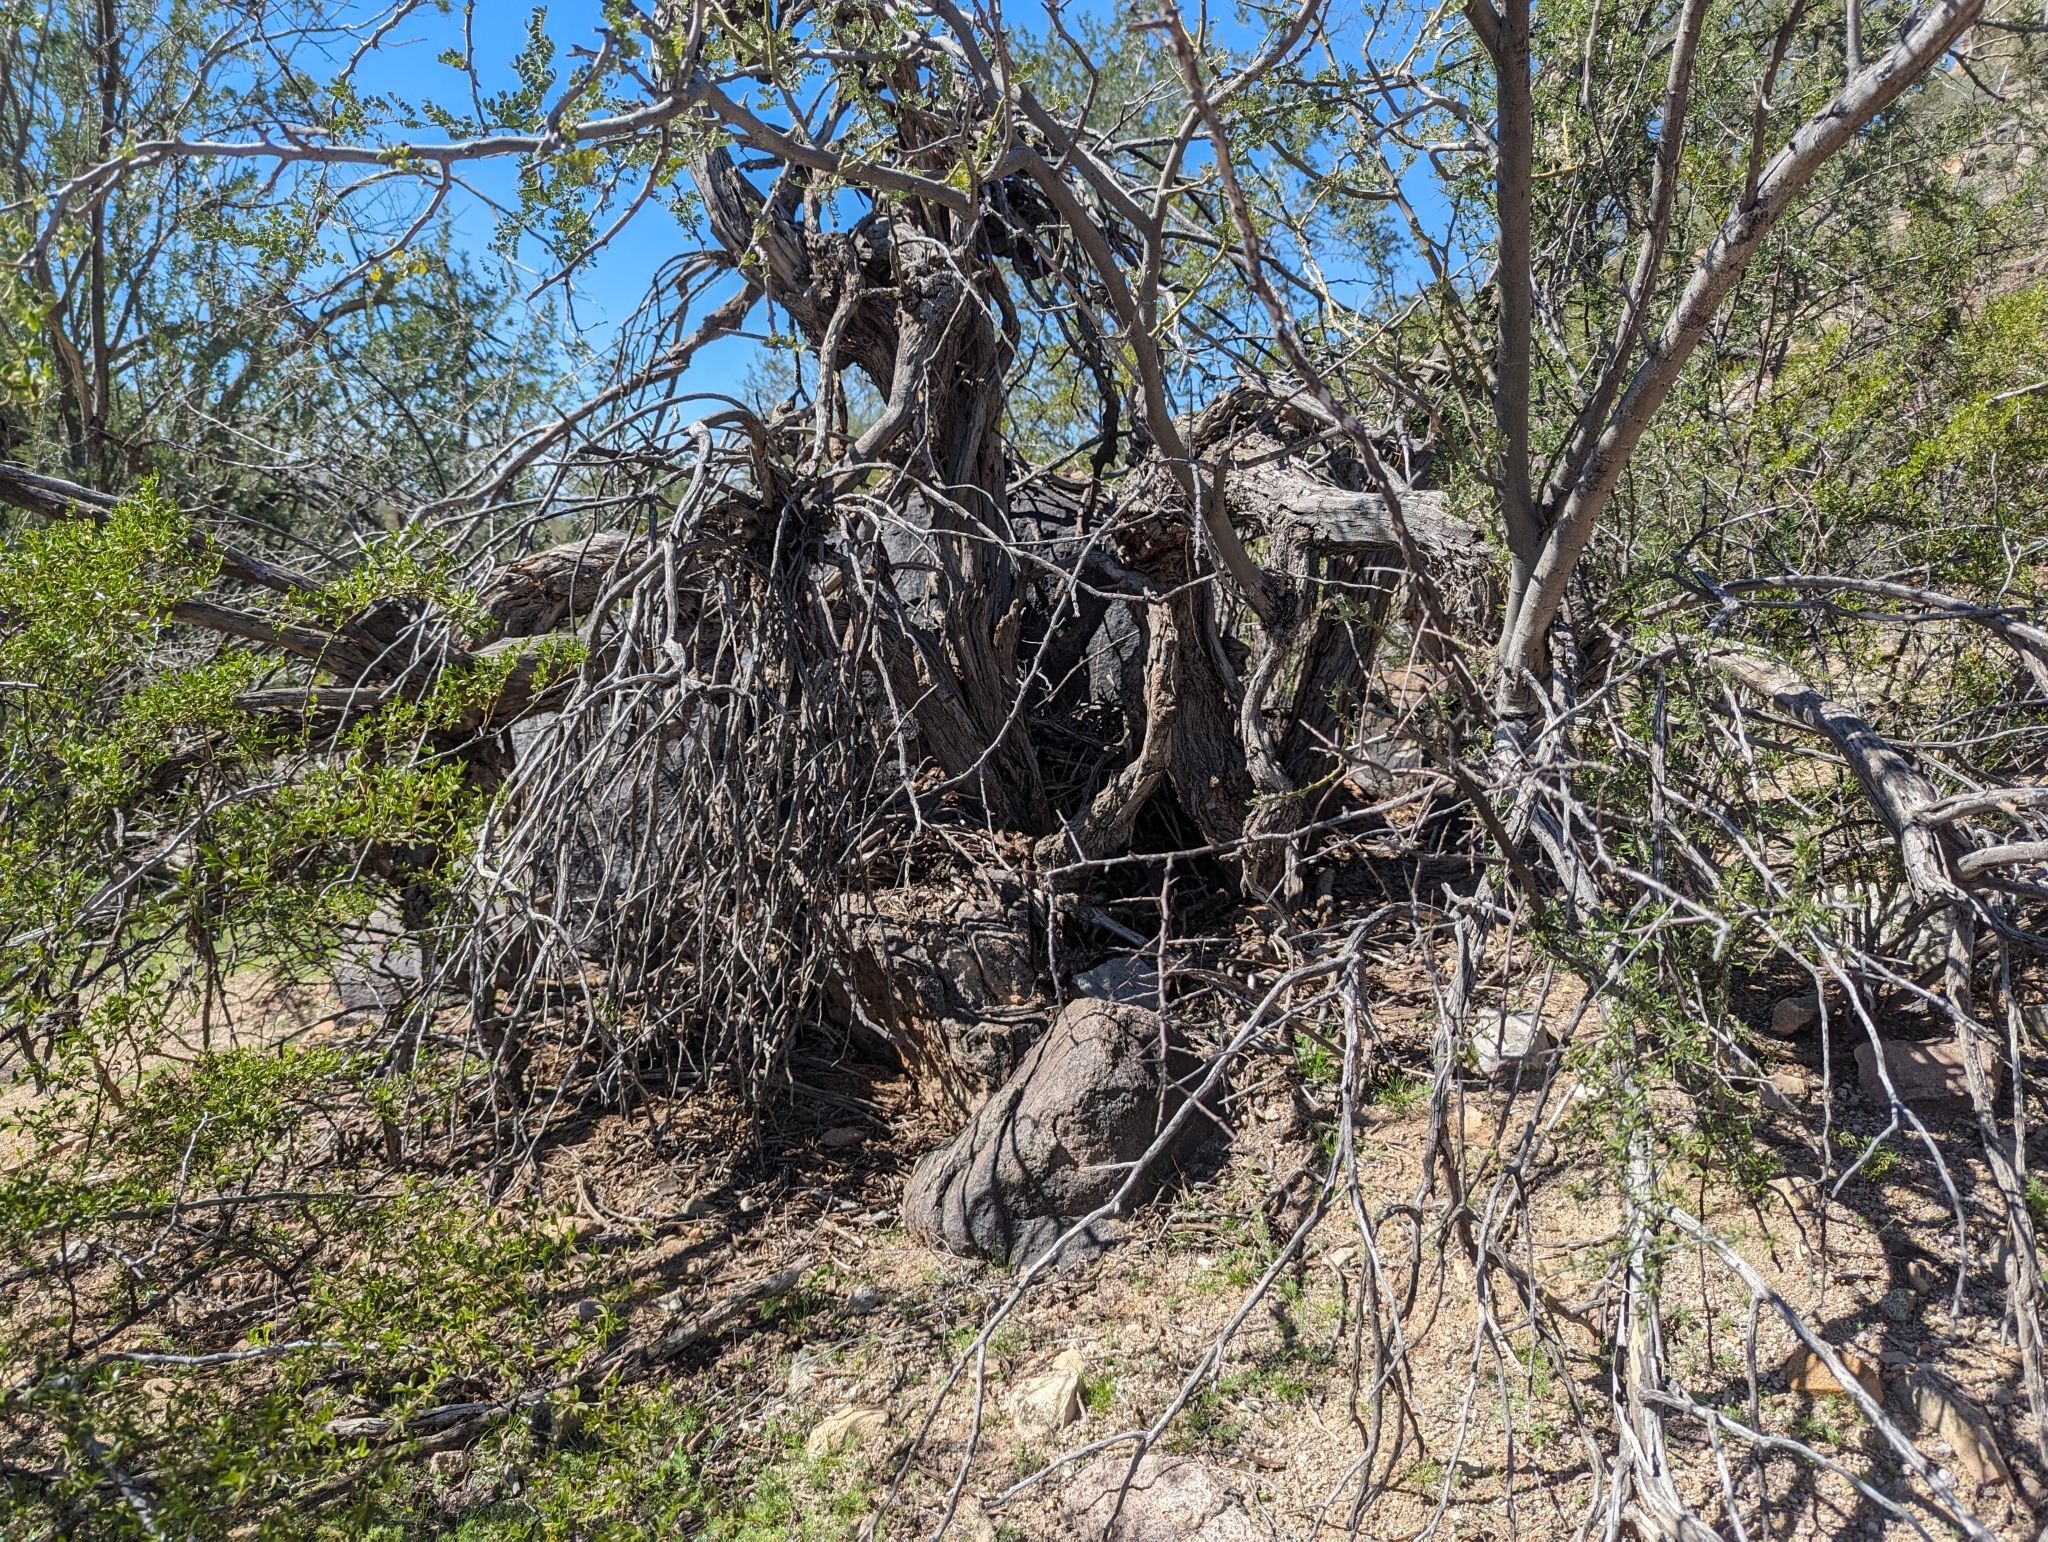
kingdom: Animalia
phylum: Chordata
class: Mammalia
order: Rodentia
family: Cricetidae
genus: Neotoma
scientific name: Neotoma albigula
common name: White-throated woodrat
